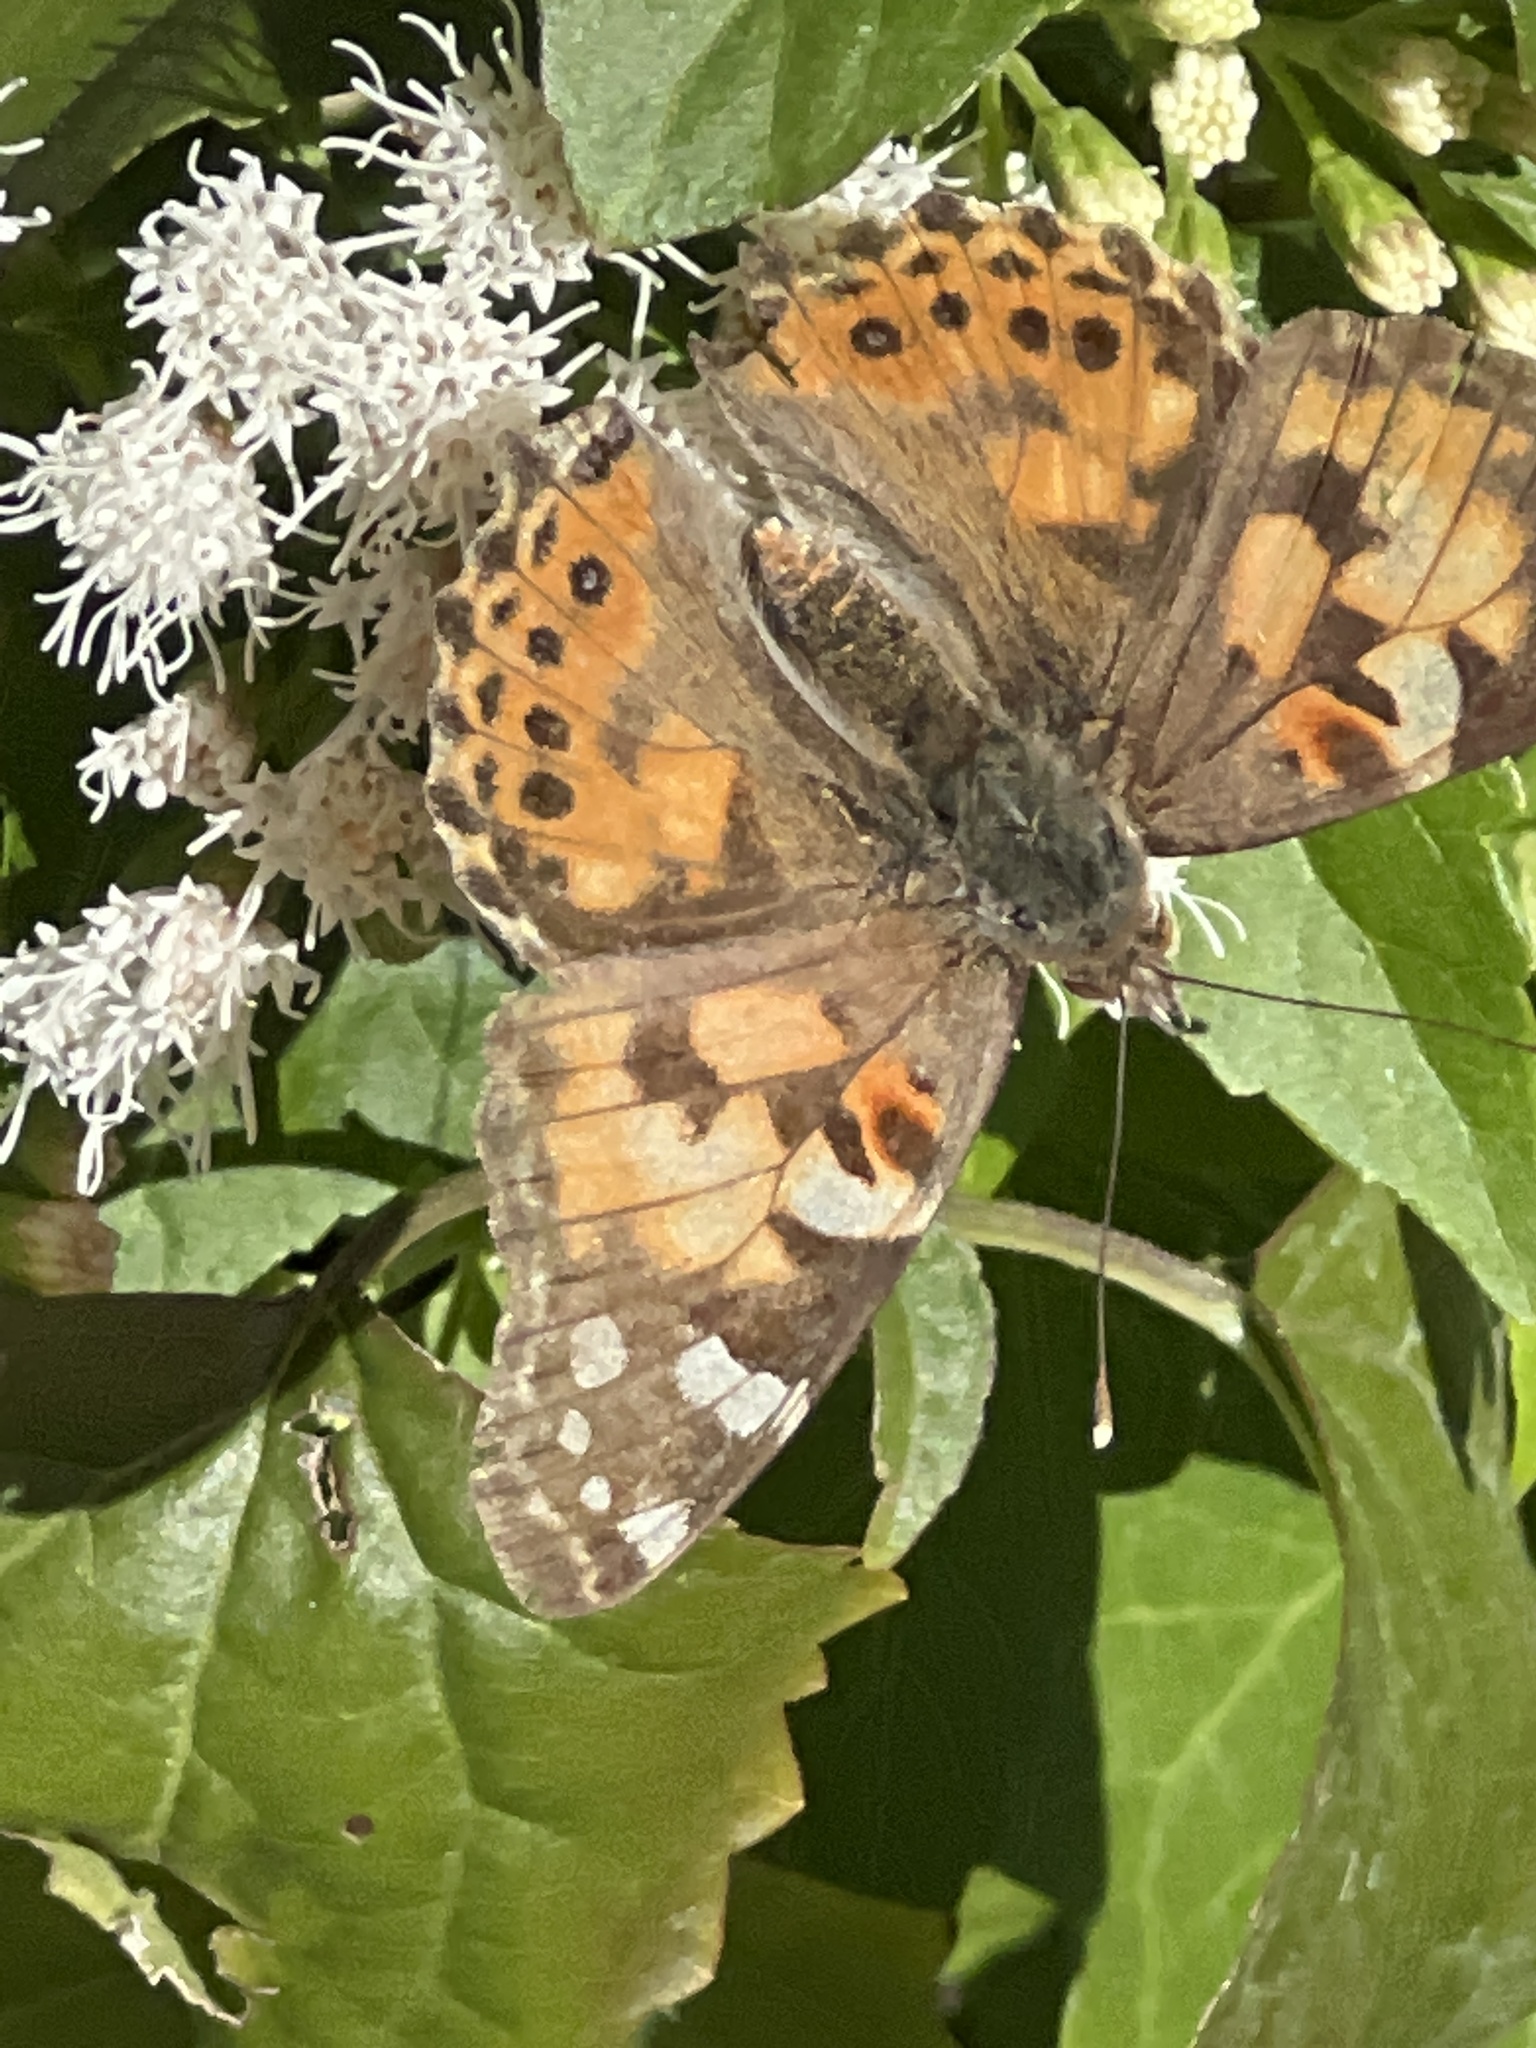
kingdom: Animalia
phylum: Arthropoda
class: Insecta
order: Lepidoptera
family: Nymphalidae
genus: Vanessa
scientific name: Vanessa cardui
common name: Painted lady
